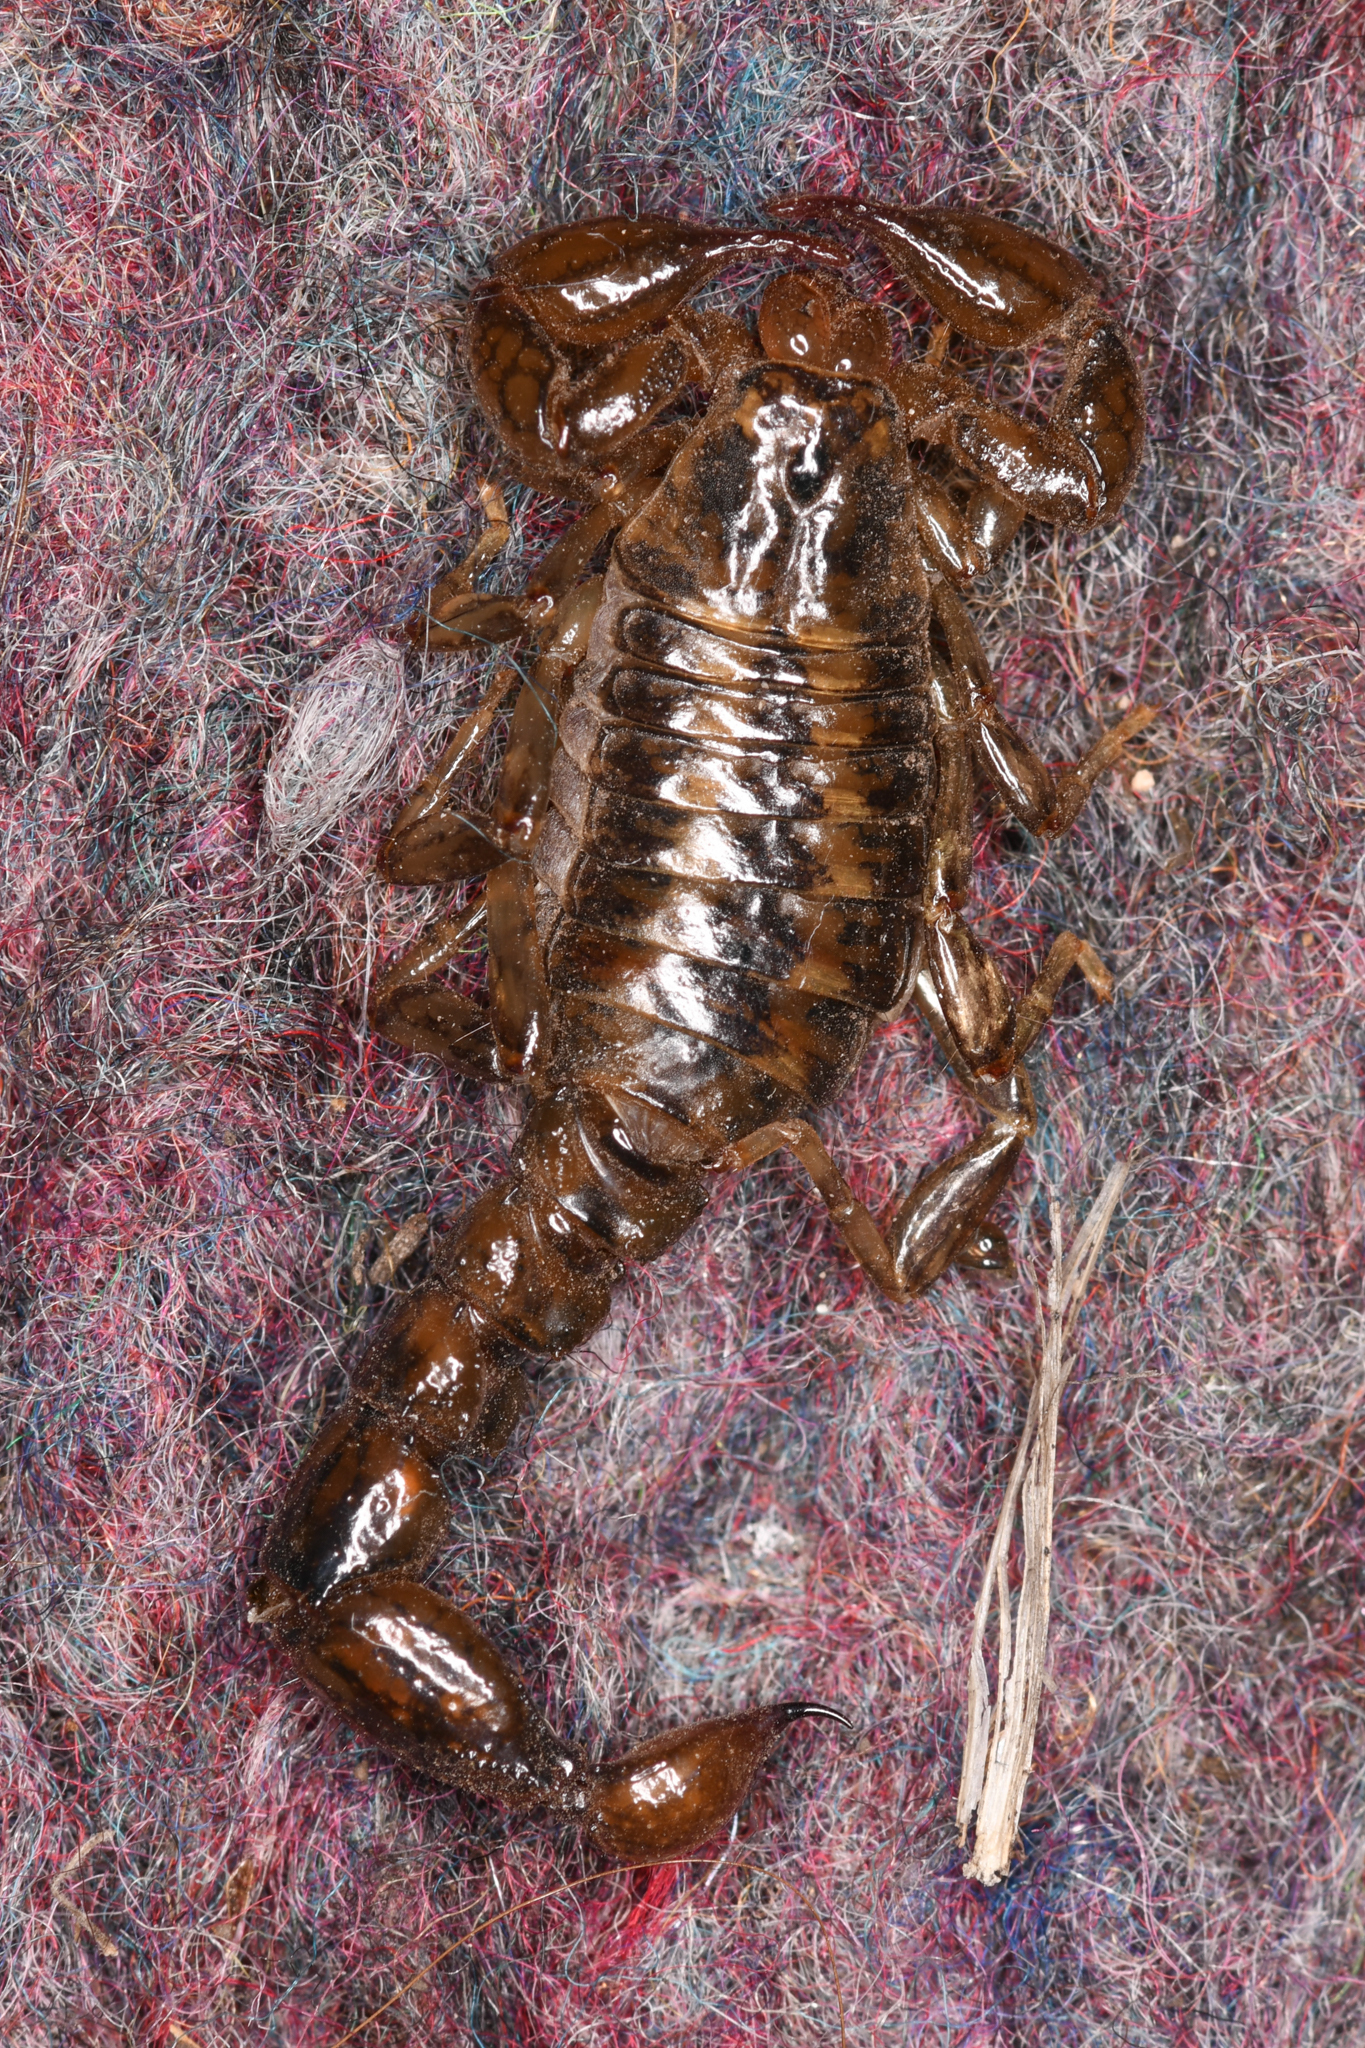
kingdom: Animalia
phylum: Arthropoda
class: Arachnida
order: Scorpiones
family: Superstitioniidae
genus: Superstitionia
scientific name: Superstitionia donensis
